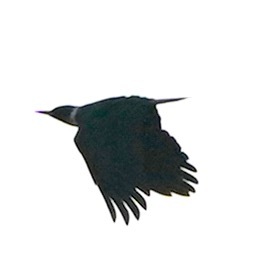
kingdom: Animalia
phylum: Chordata
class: Aves
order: Piciformes
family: Picidae
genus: Melanerpes
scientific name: Melanerpes lewis
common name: Lewis's woodpecker
